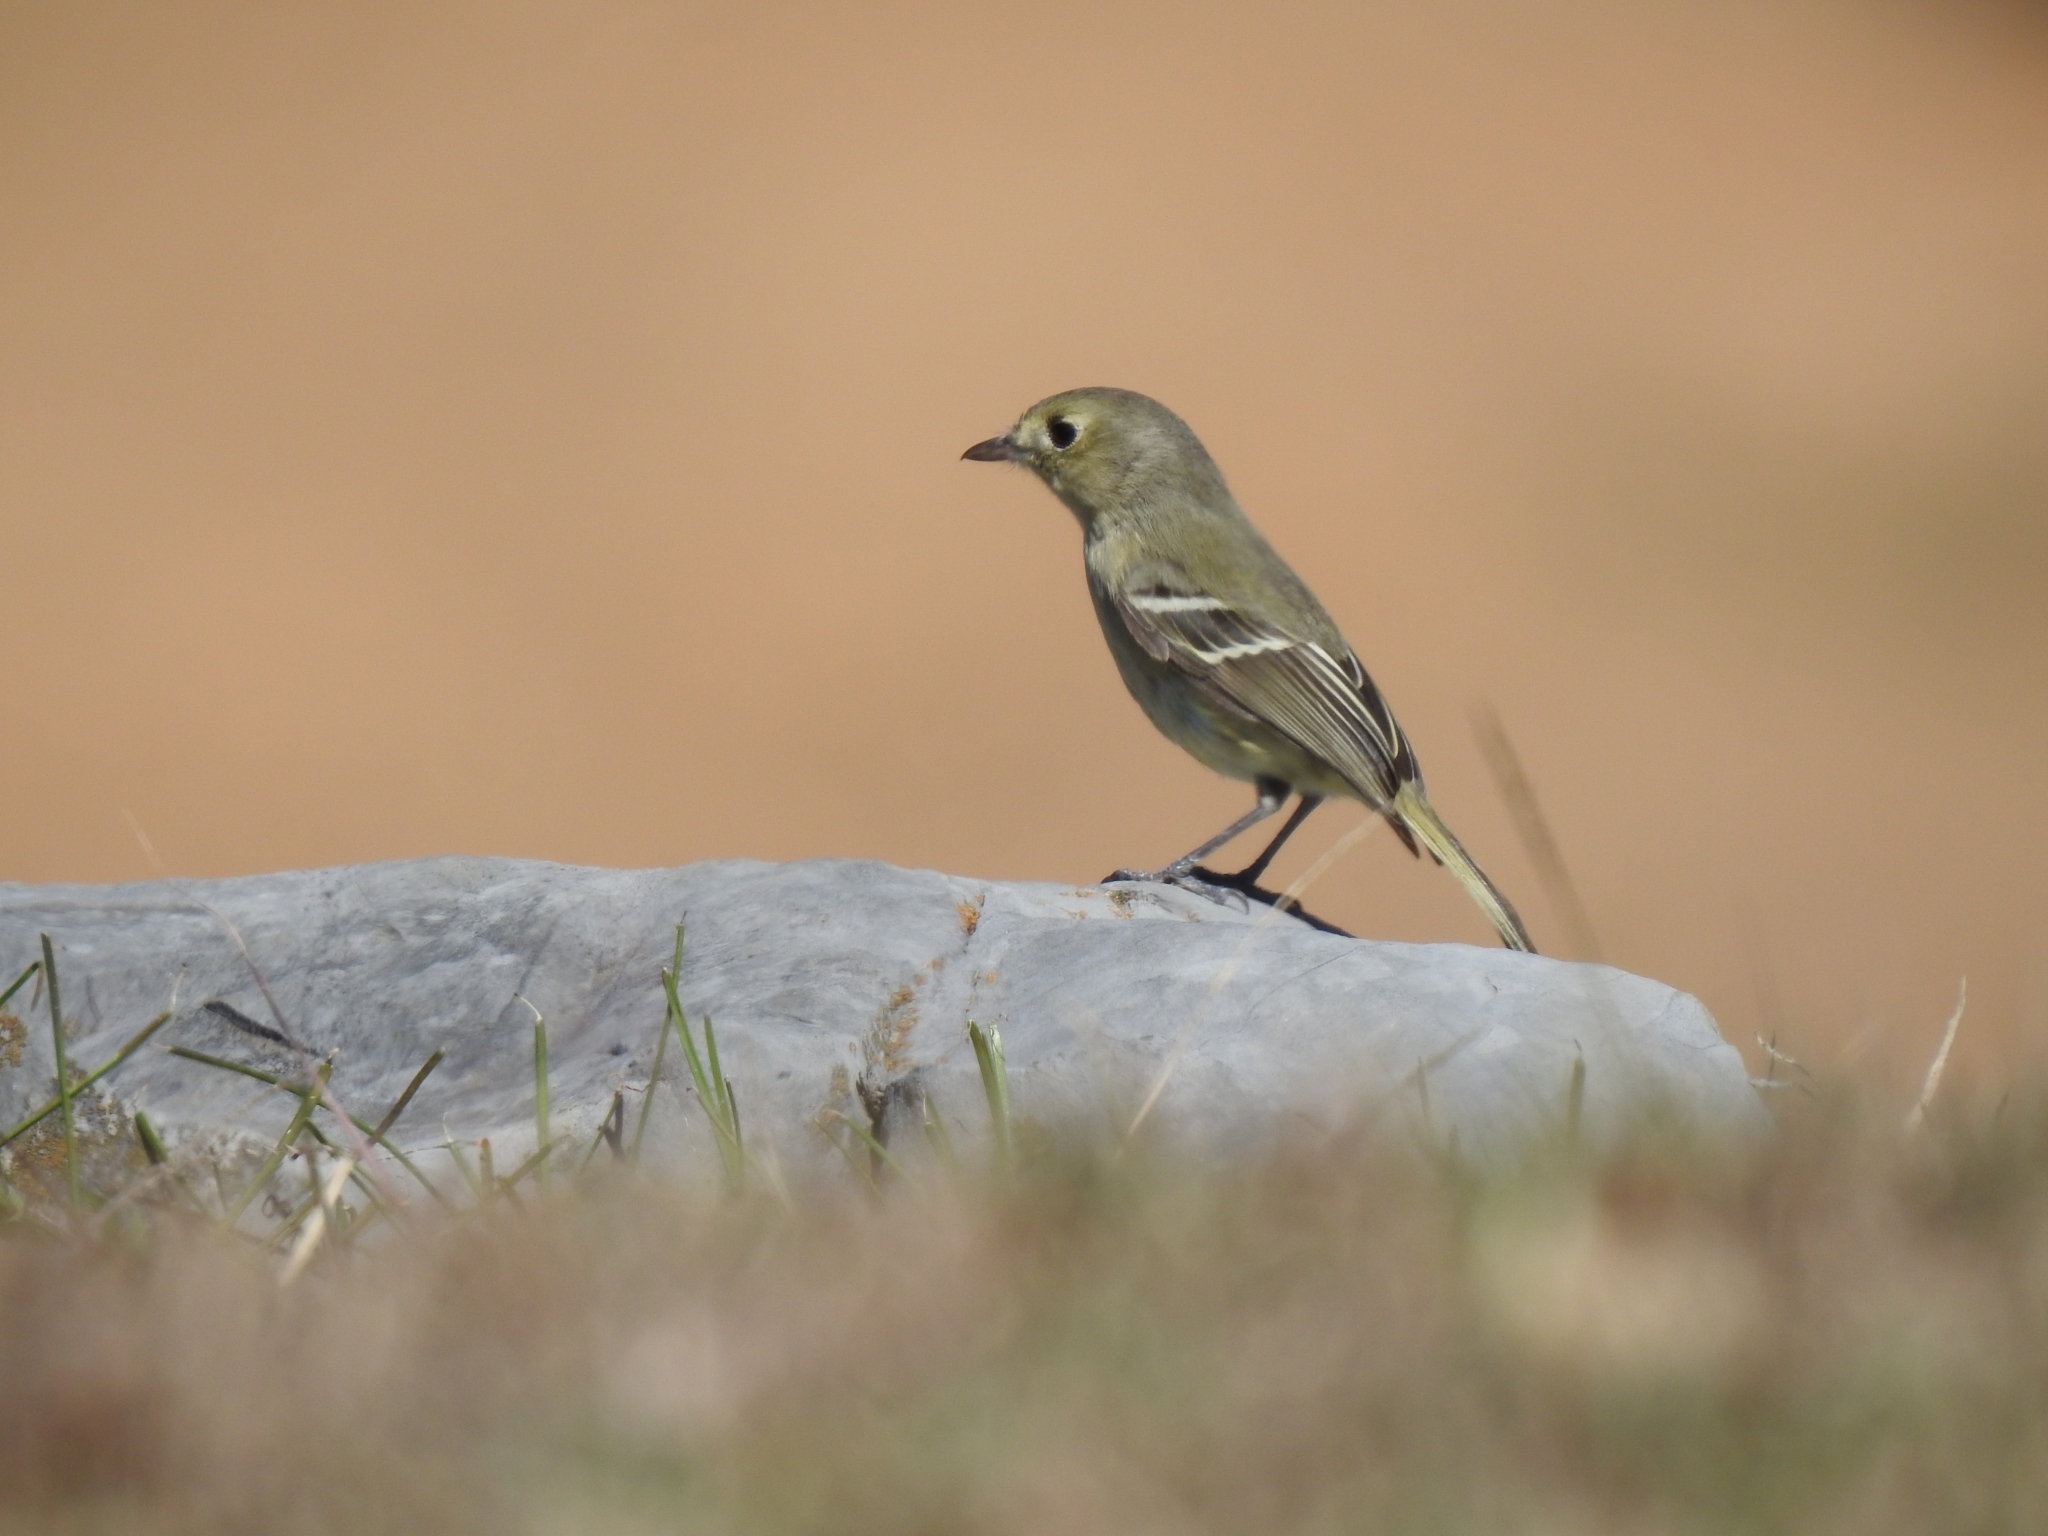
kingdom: Animalia
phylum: Chordata
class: Aves
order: Passeriformes
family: Vireonidae
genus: Vireo
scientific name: Vireo huttoni
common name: Hutton's vireo
